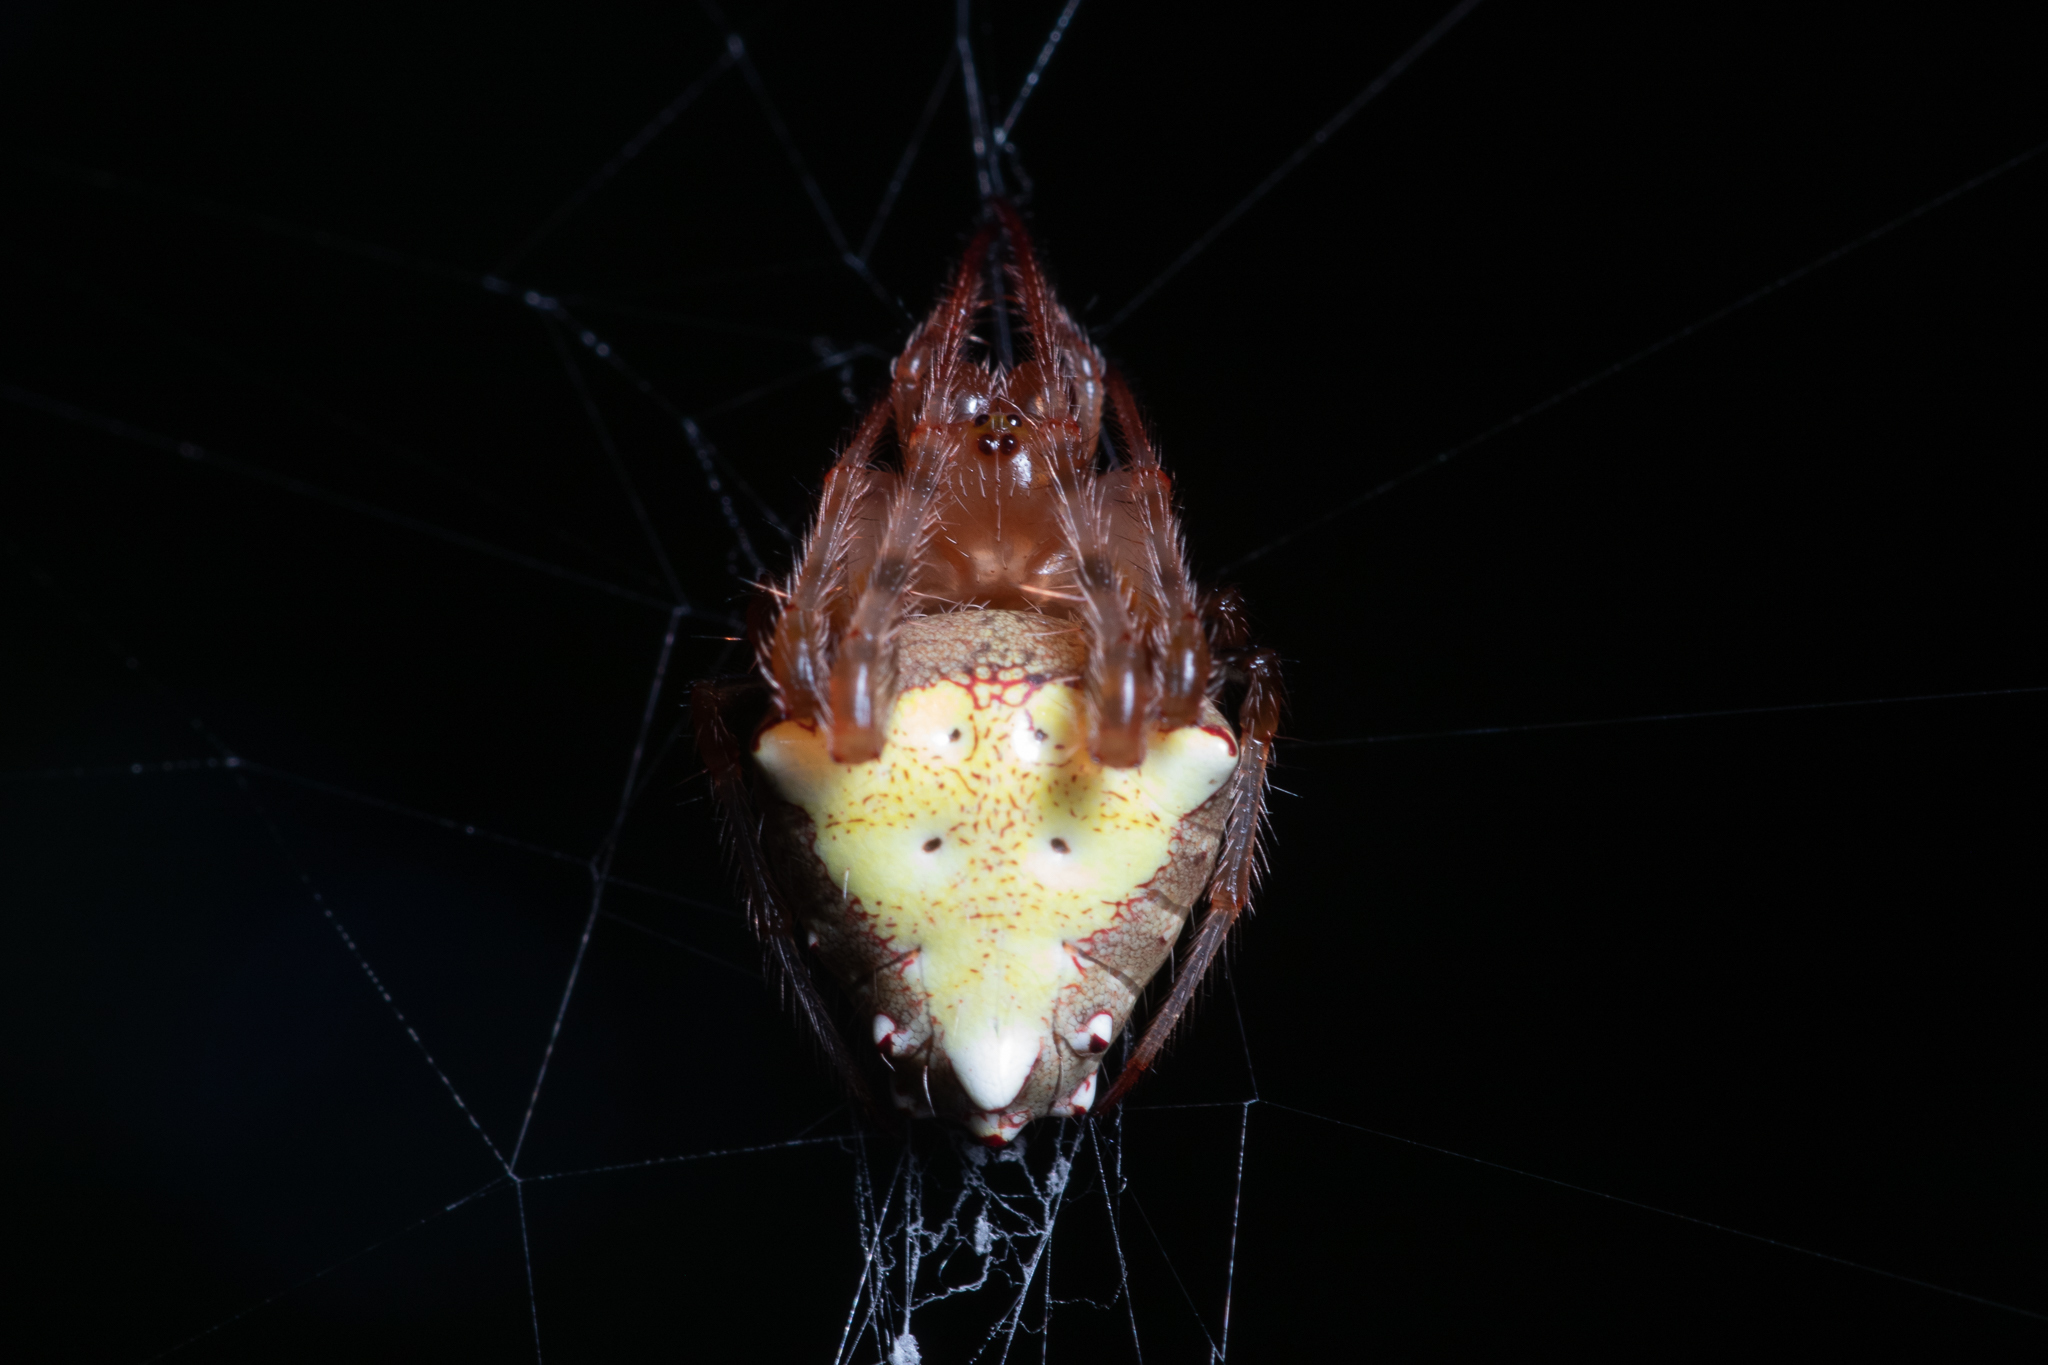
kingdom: Animalia
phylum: Arthropoda
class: Arachnida
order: Araneae
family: Araneidae
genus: Verrucosa
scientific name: Verrucosa arenata
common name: Orb weavers
